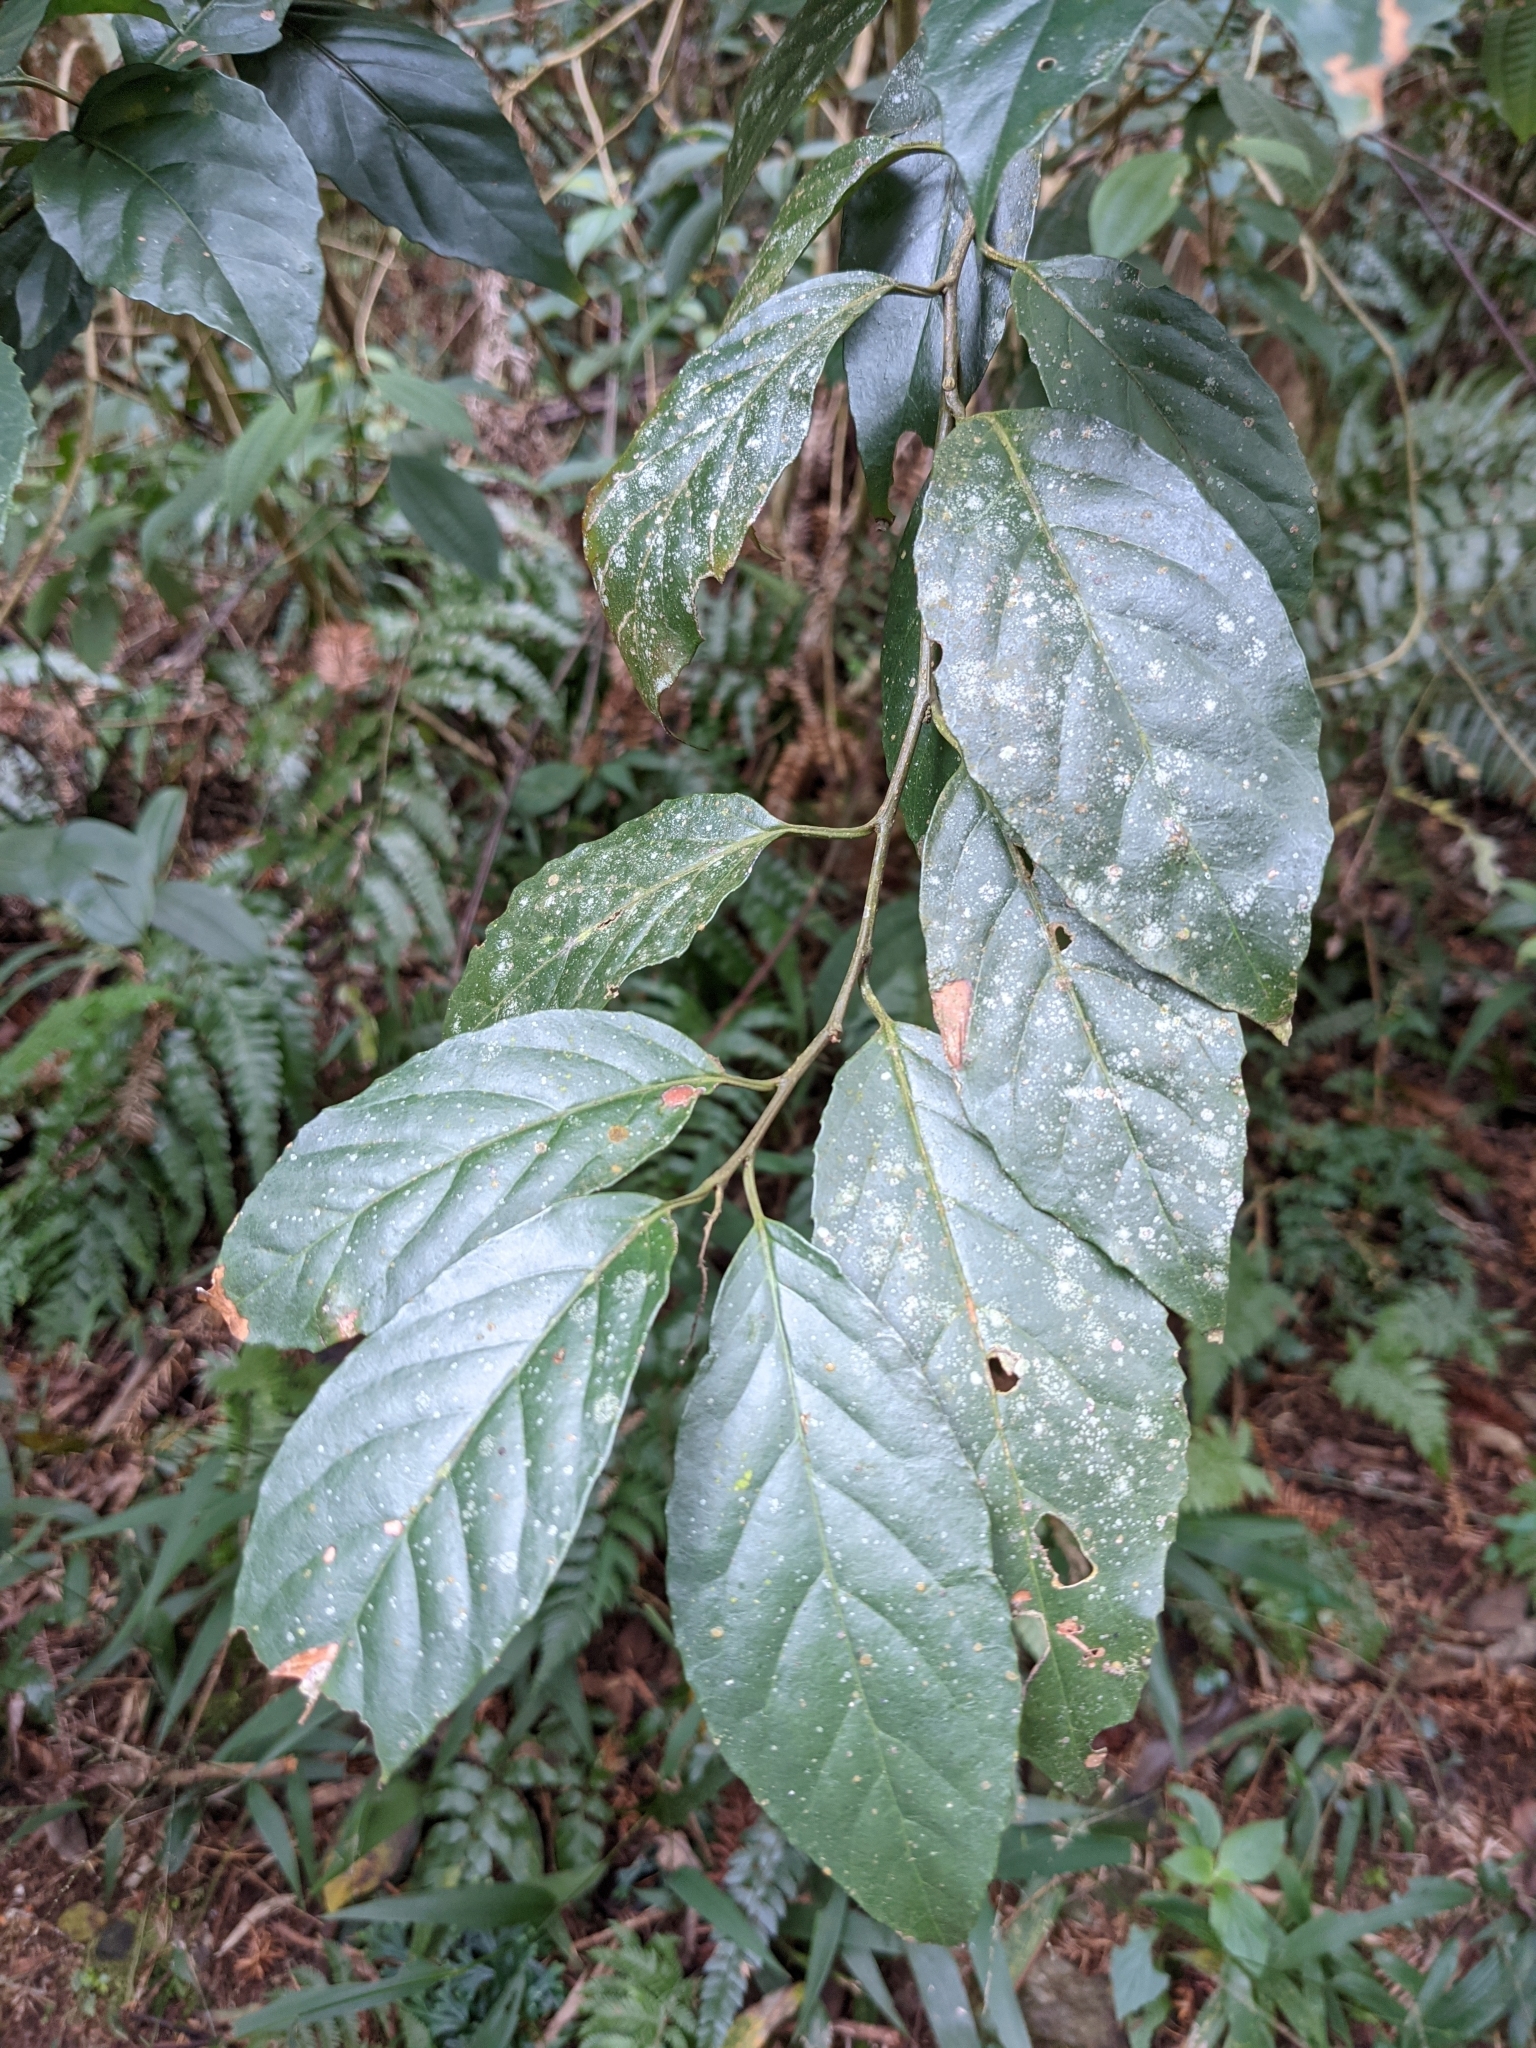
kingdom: Plantae
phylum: Tracheophyta
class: Magnoliopsida
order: Ericales
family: Primulaceae
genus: Maesa
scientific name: Maesa perlaria
